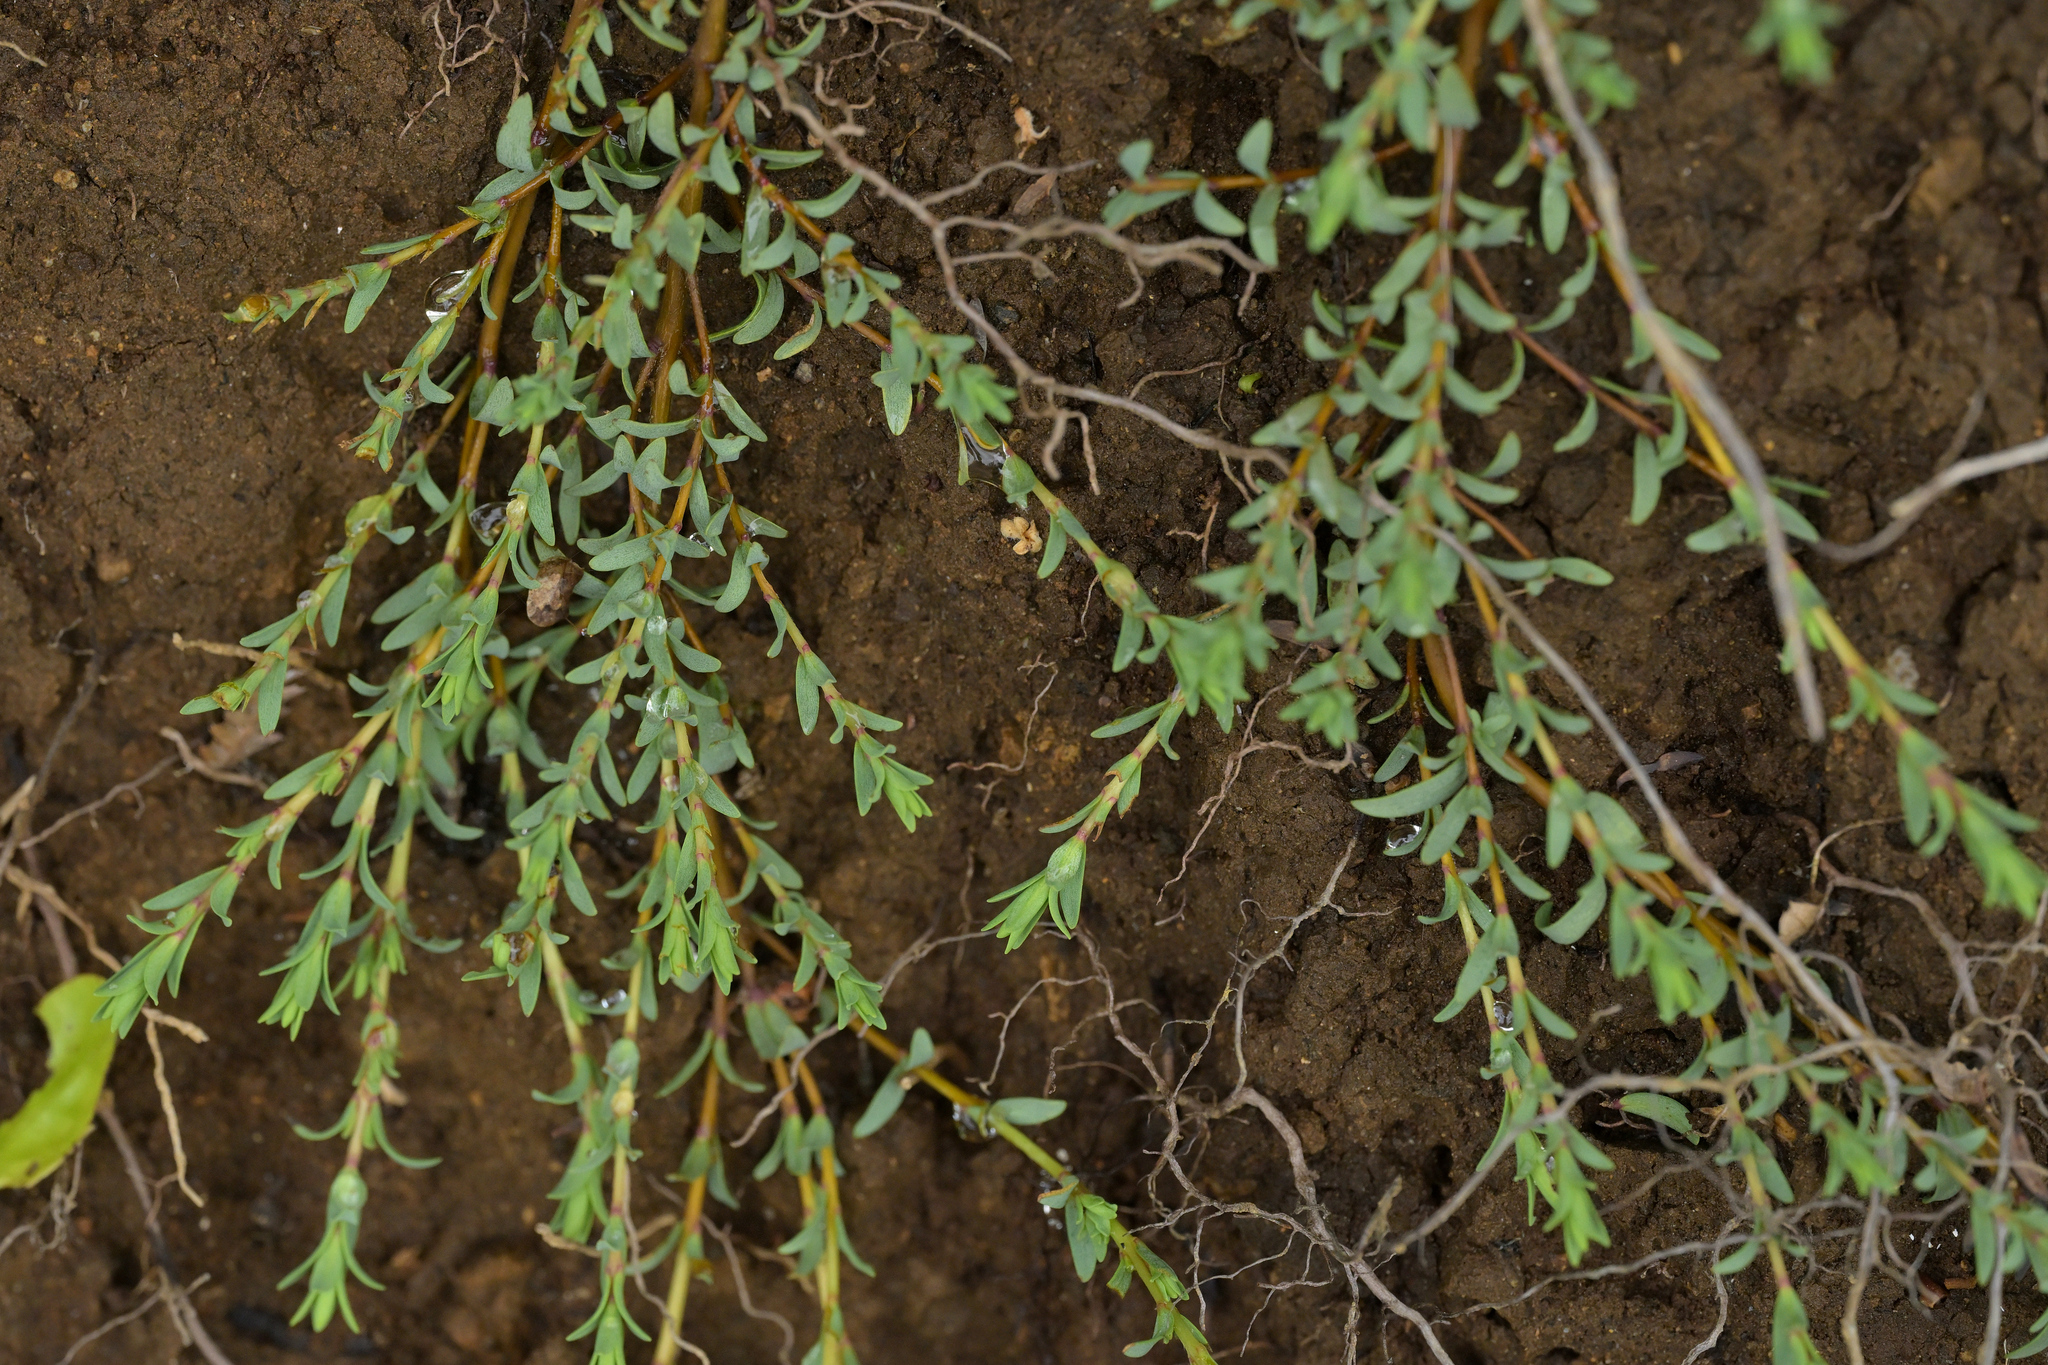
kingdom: Plantae
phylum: Tracheophyta
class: Magnoliopsida
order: Malvales
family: Thymelaeaceae
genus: Pimelea
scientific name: Pimelea prostrata
